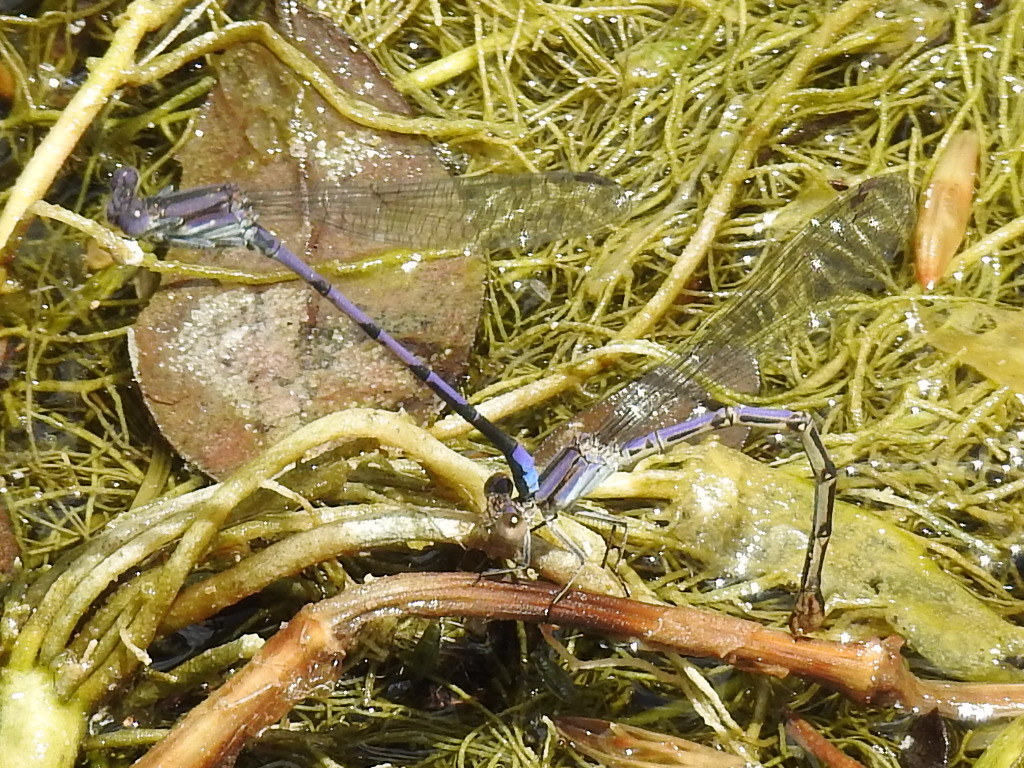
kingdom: Animalia
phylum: Arthropoda
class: Insecta
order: Odonata
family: Coenagrionidae
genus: Argia
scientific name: Argia fumipennis
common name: Variable dancer
